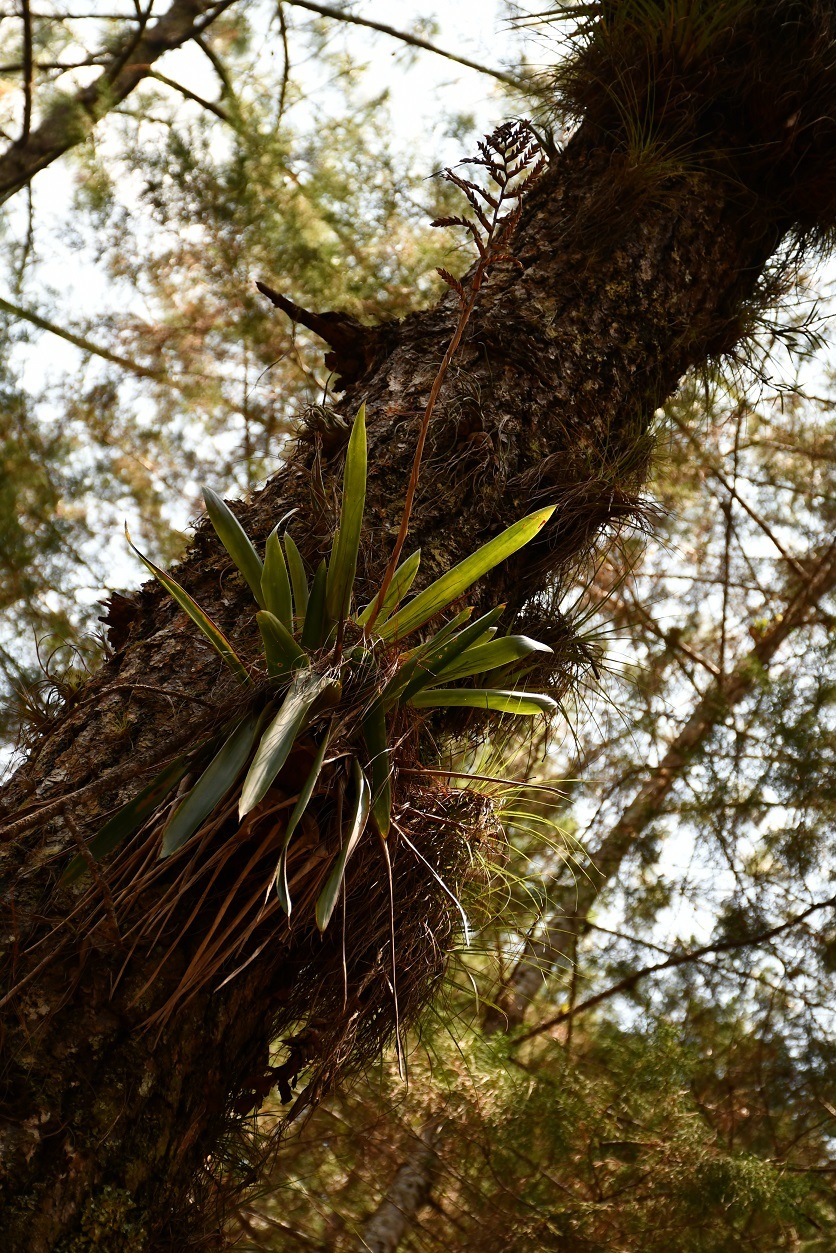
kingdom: Plantae
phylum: Tracheophyta
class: Liliopsida
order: Poales
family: Bromeliaceae
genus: Racinaea
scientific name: Racinaea rothschuhiana
